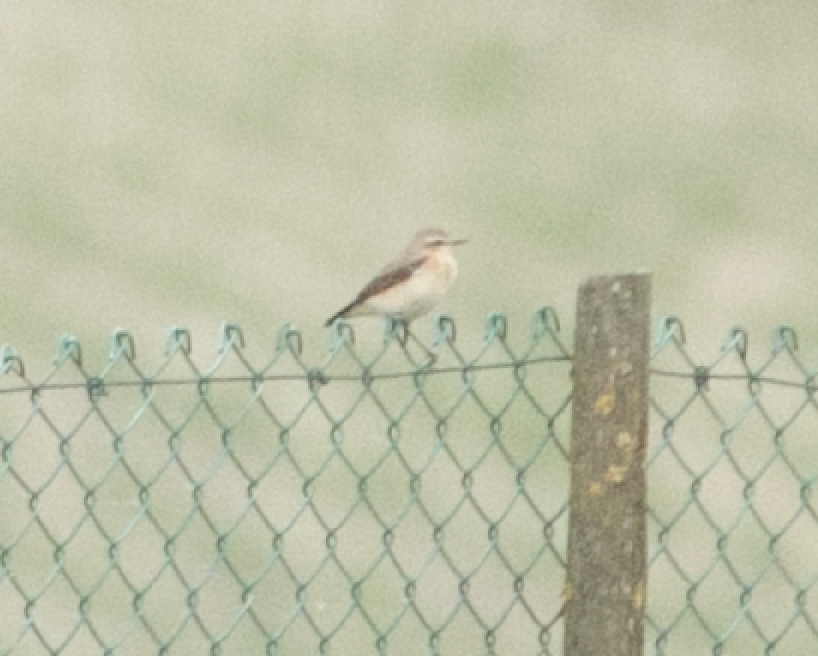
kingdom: Animalia
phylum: Chordata
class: Aves
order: Passeriformes
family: Muscicapidae
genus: Oenanthe
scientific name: Oenanthe oenanthe
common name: Northern wheatear
